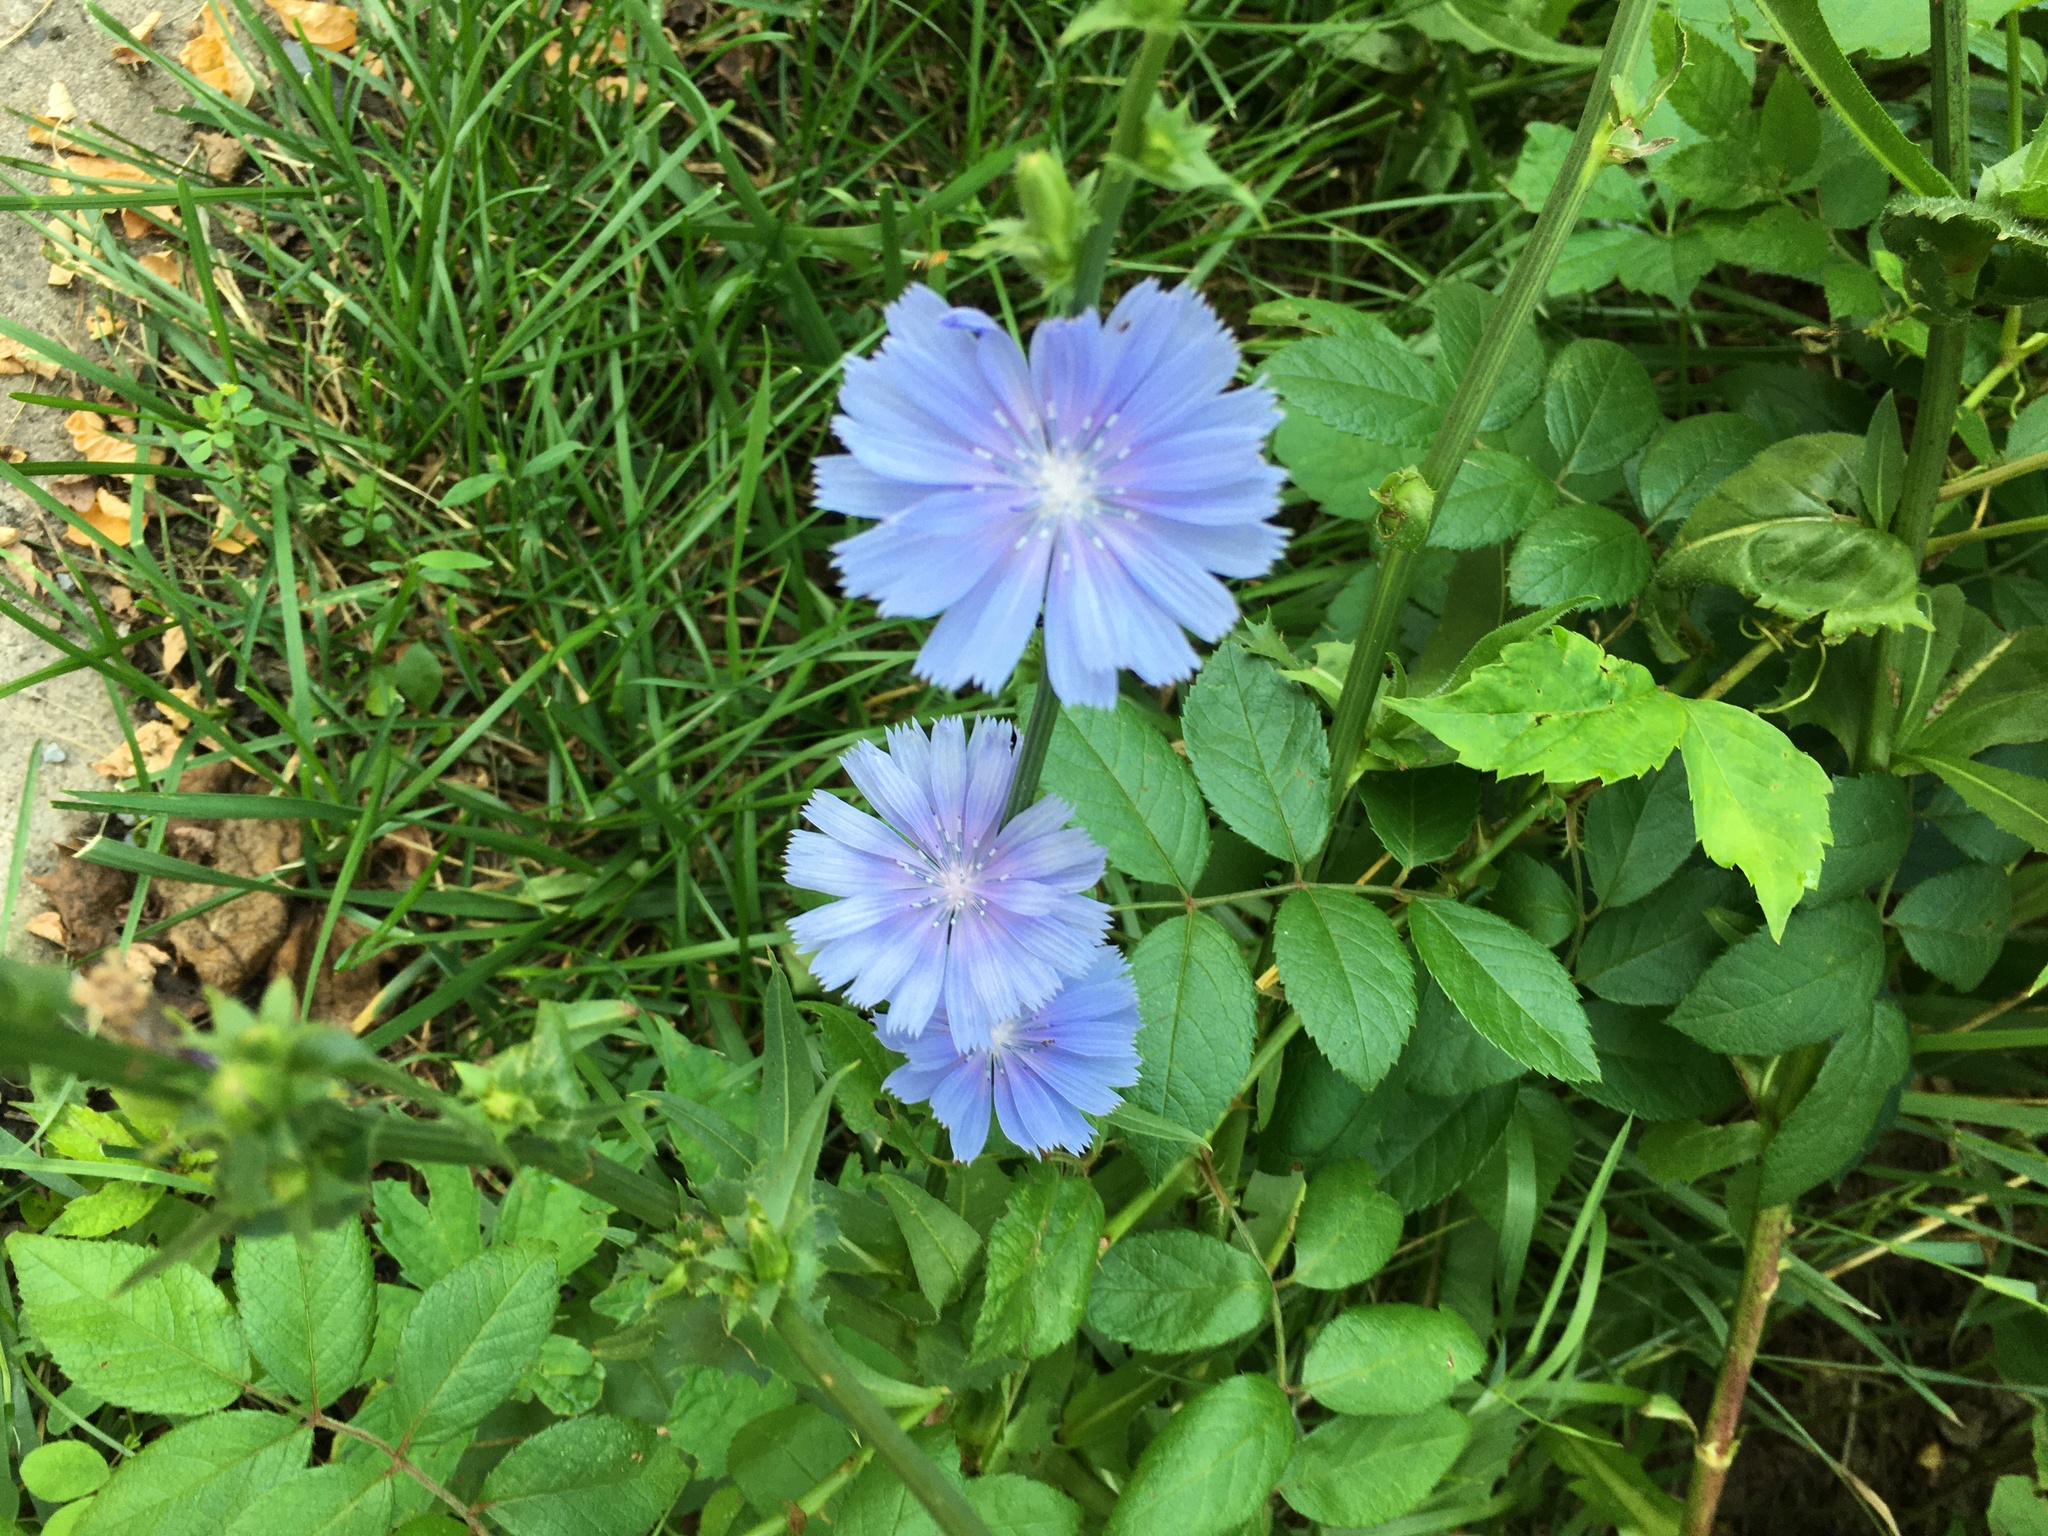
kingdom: Plantae
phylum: Tracheophyta
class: Magnoliopsida
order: Asterales
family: Asteraceae
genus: Cichorium
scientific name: Cichorium intybus
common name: Chicory
